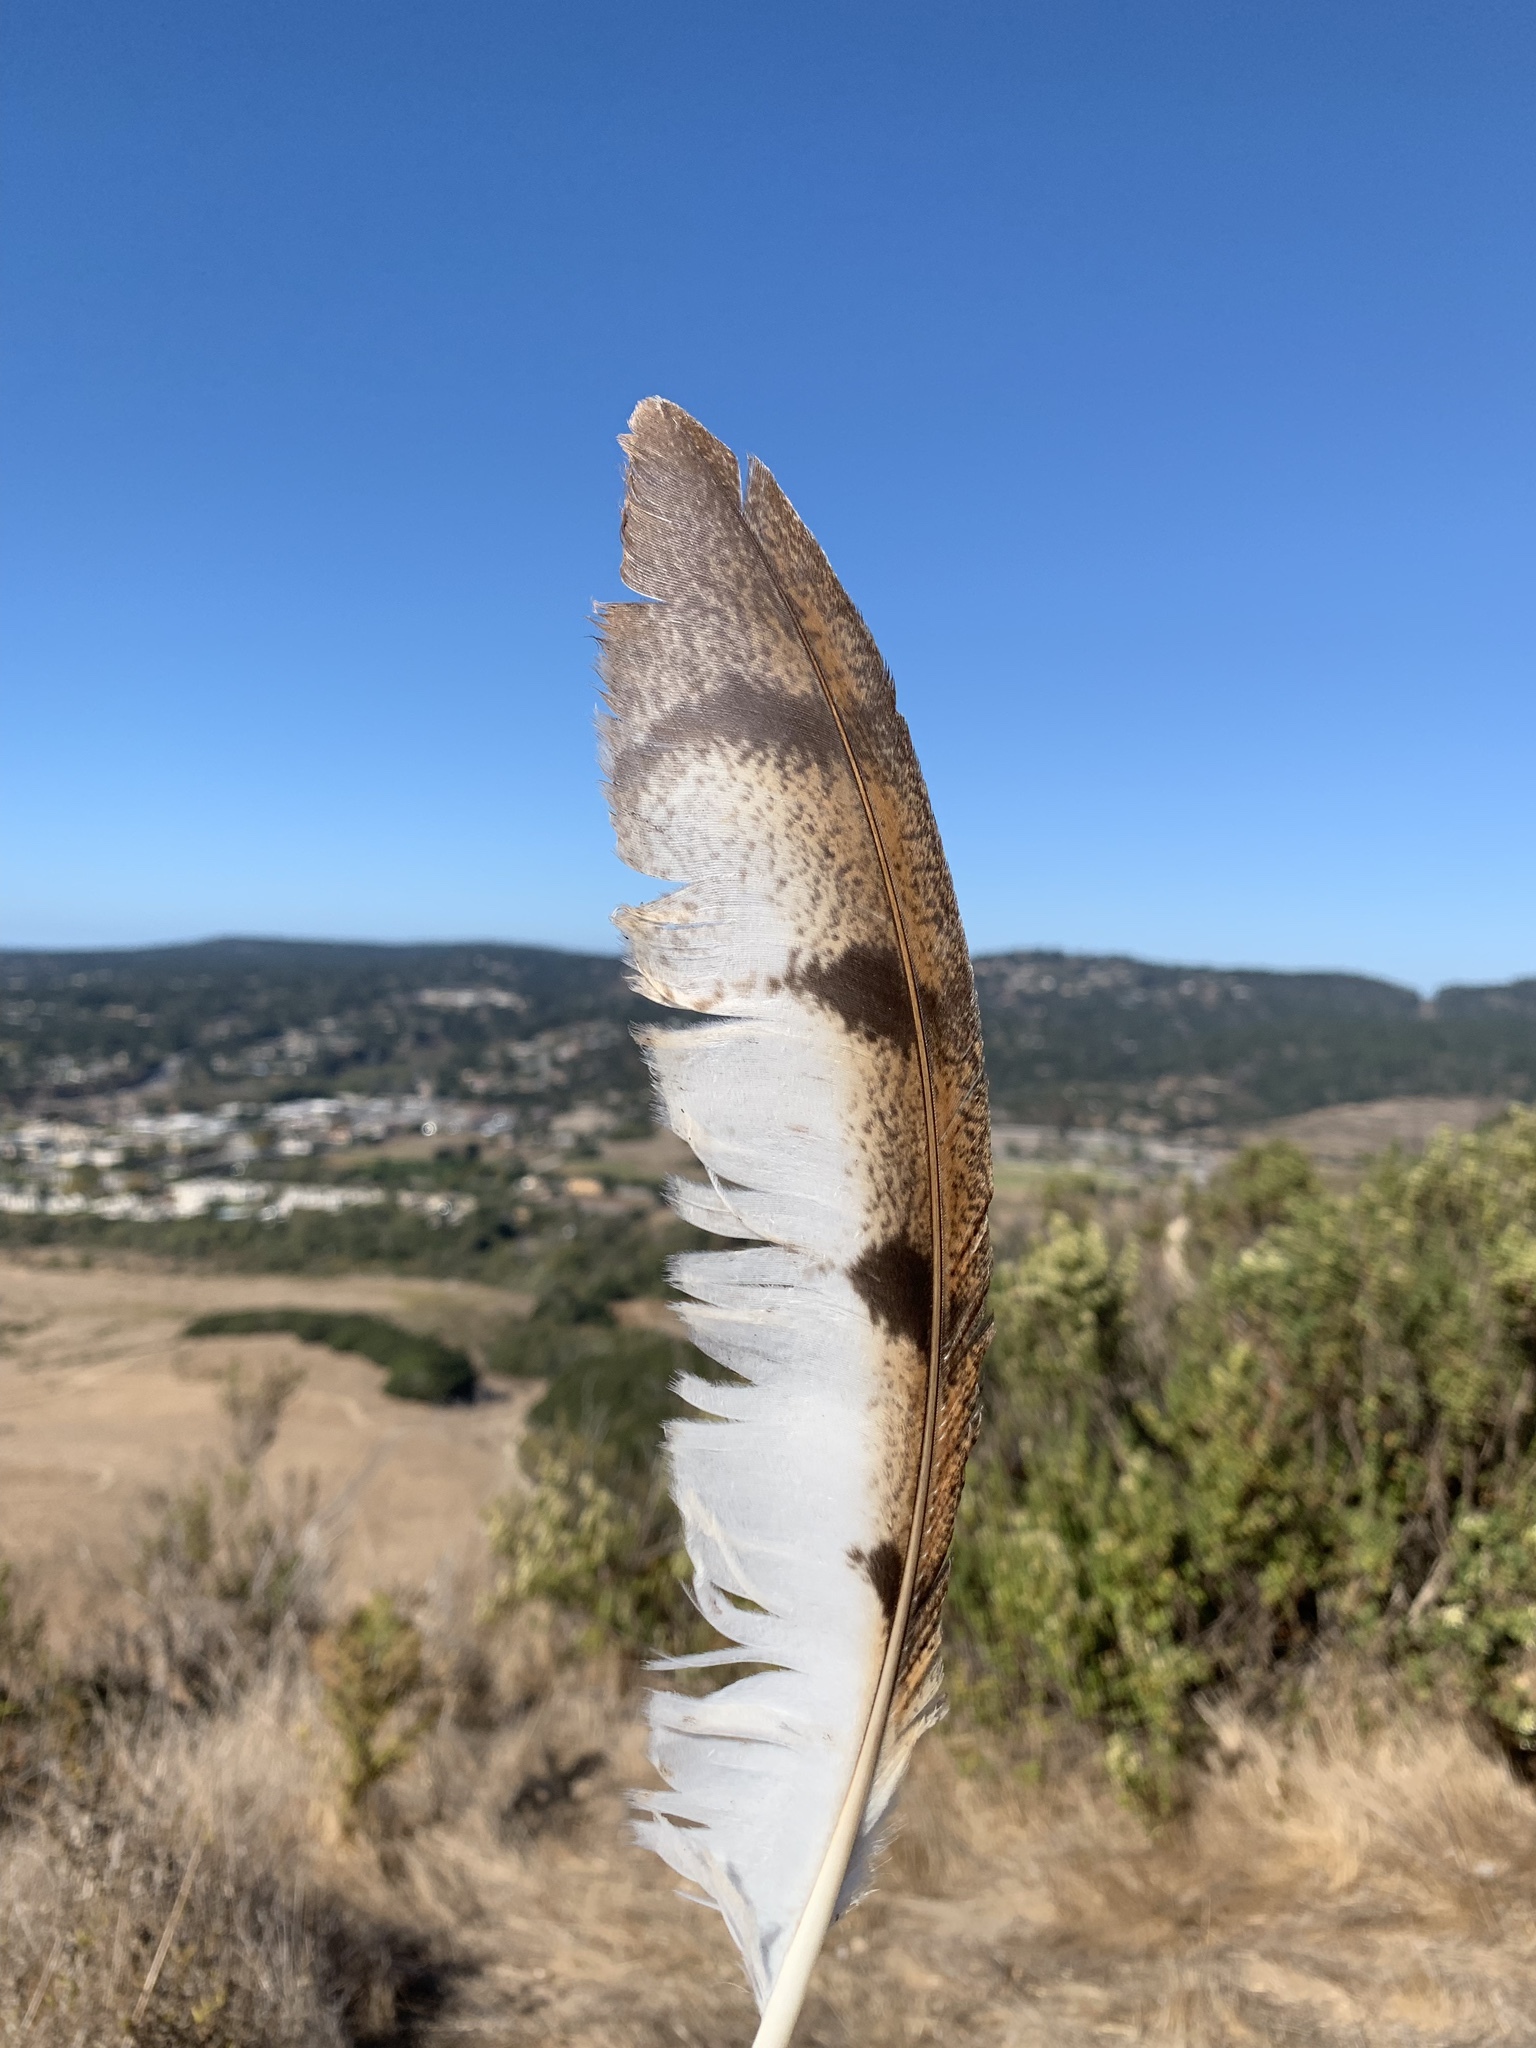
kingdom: Animalia
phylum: Chordata
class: Aves
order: Strigiformes
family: Tytonidae
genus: Tyto
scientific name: Tyto furcata
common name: American barn owl
